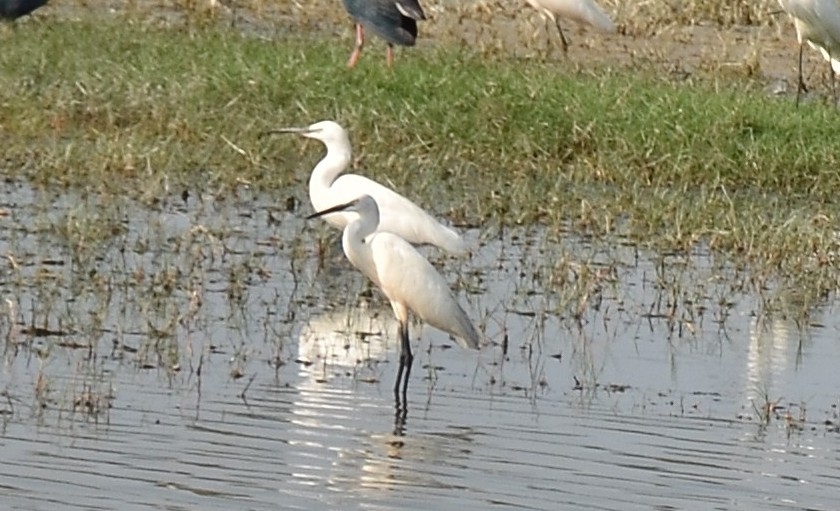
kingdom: Animalia
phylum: Chordata
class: Aves
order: Pelecaniformes
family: Ardeidae
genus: Egretta
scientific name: Egretta garzetta
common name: Little egret
